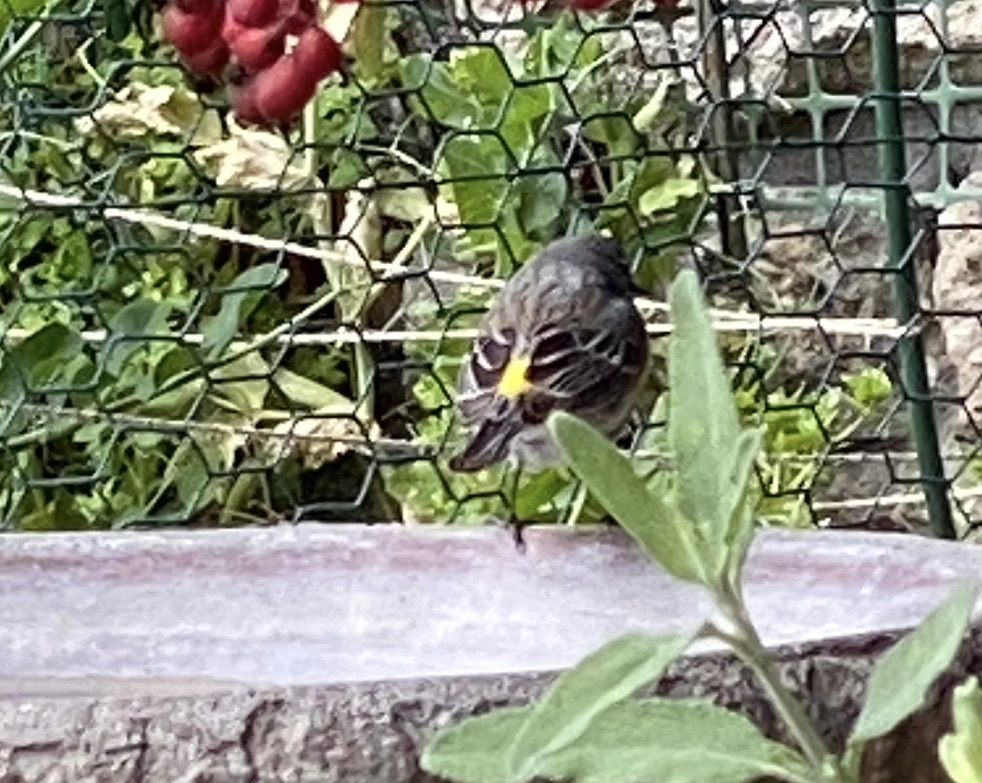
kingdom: Animalia
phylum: Chordata
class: Aves
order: Passeriformes
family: Parulidae
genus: Setophaga
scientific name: Setophaga coronata
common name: Myrtle warbler
